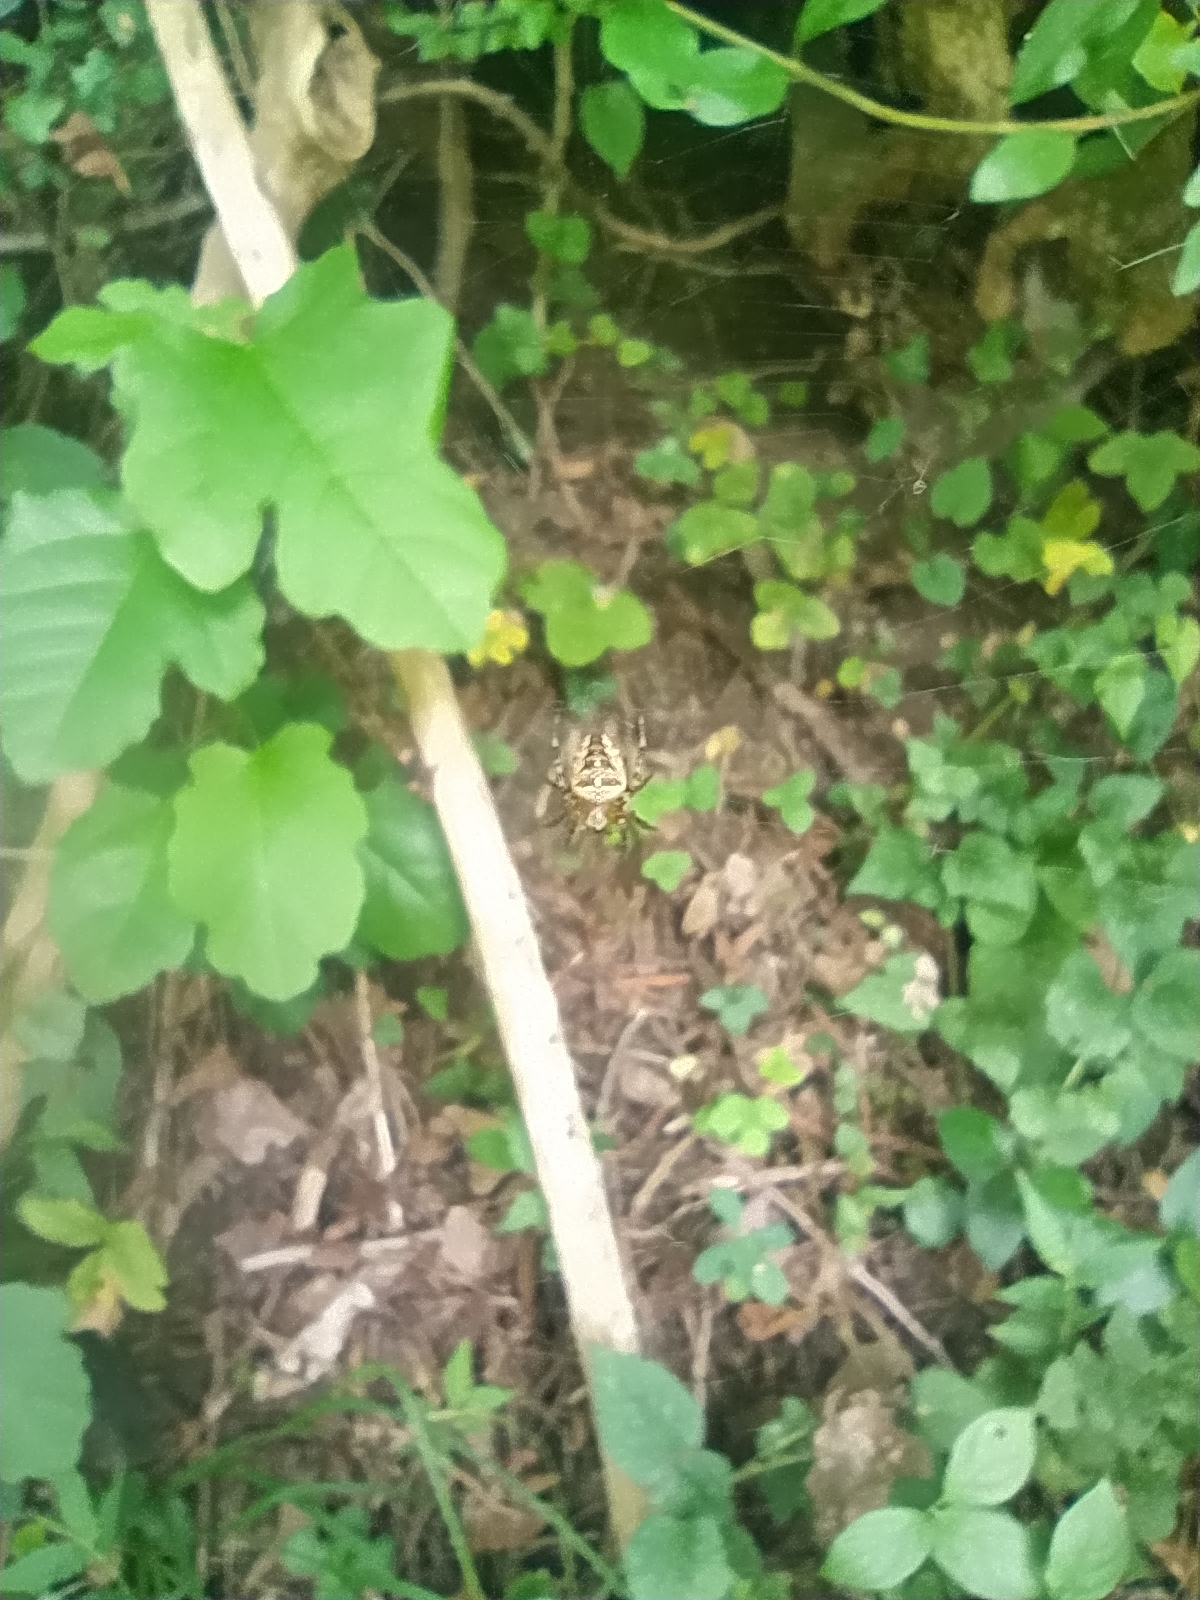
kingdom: Animalia
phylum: Arthropoda
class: Arachnida
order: Araneae
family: Araneidae
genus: Araneus
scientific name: Araneus diadematus
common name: Cross orbweaver
